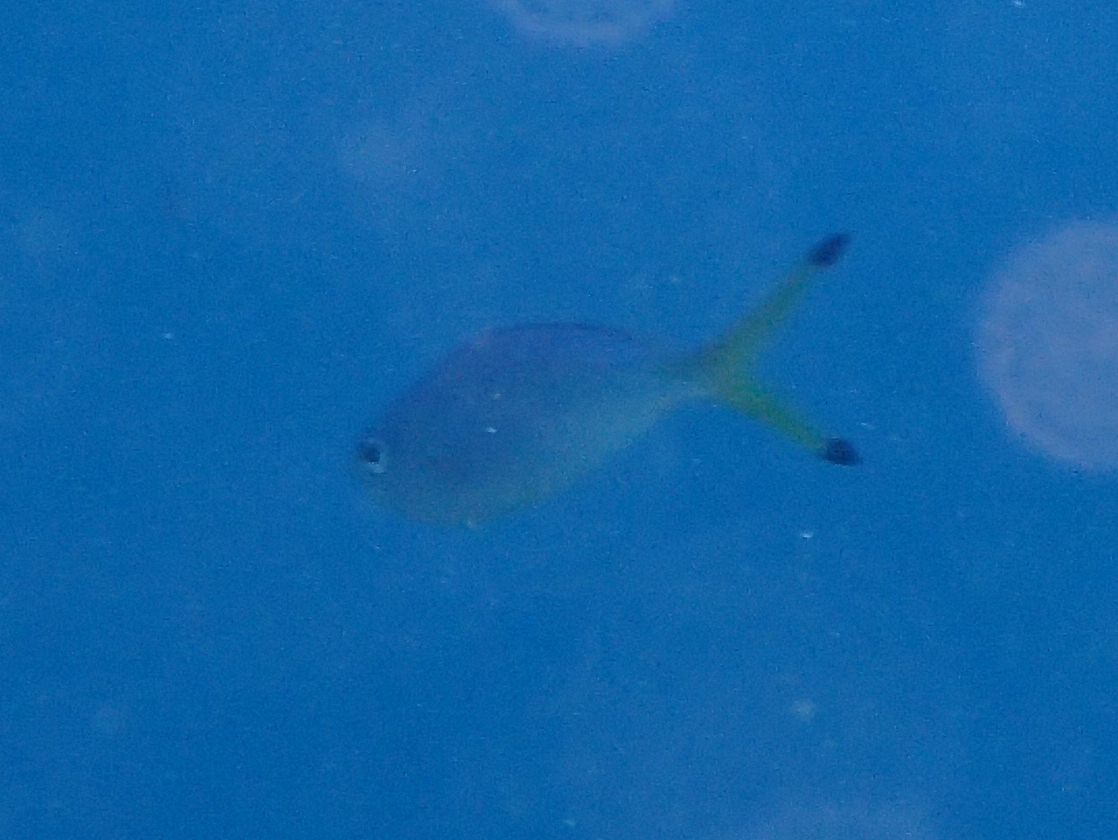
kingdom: Animalia
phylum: Chordata
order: Perciformes
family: Caesionidae
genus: Caesio
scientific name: Caesio lunaris
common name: Blue fusilier
